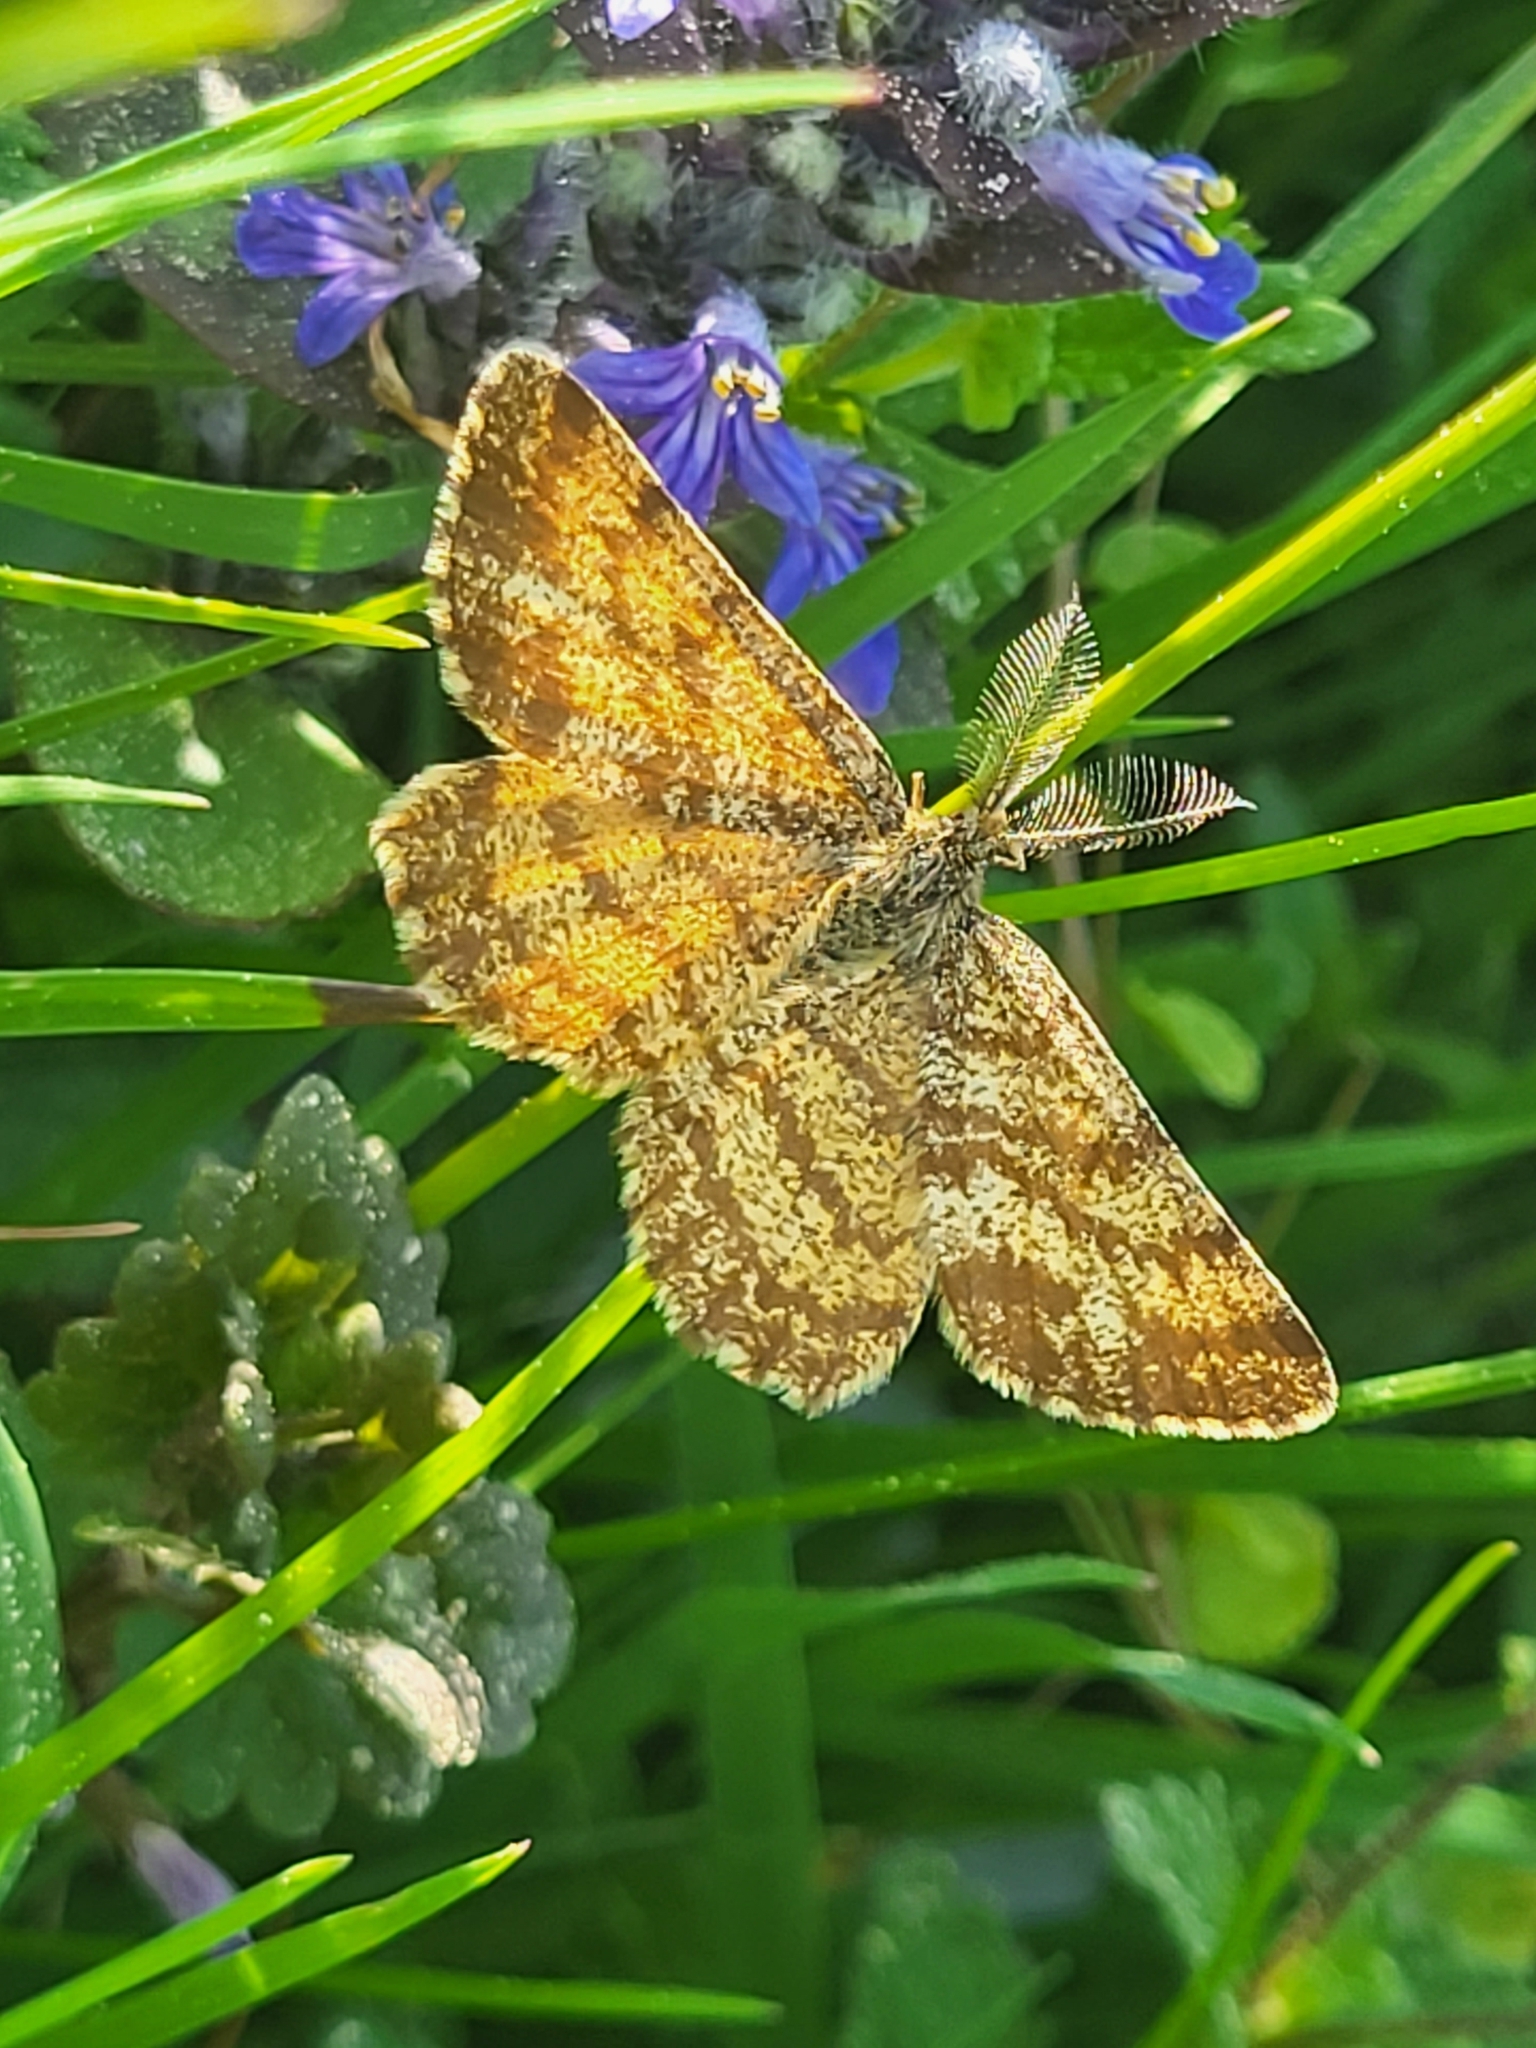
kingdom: Animalia
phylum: Arthropoda
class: Insecta
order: Lepidoptera
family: Geometridae
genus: Ematurga
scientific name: Ematurga atomaria
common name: Common heath
